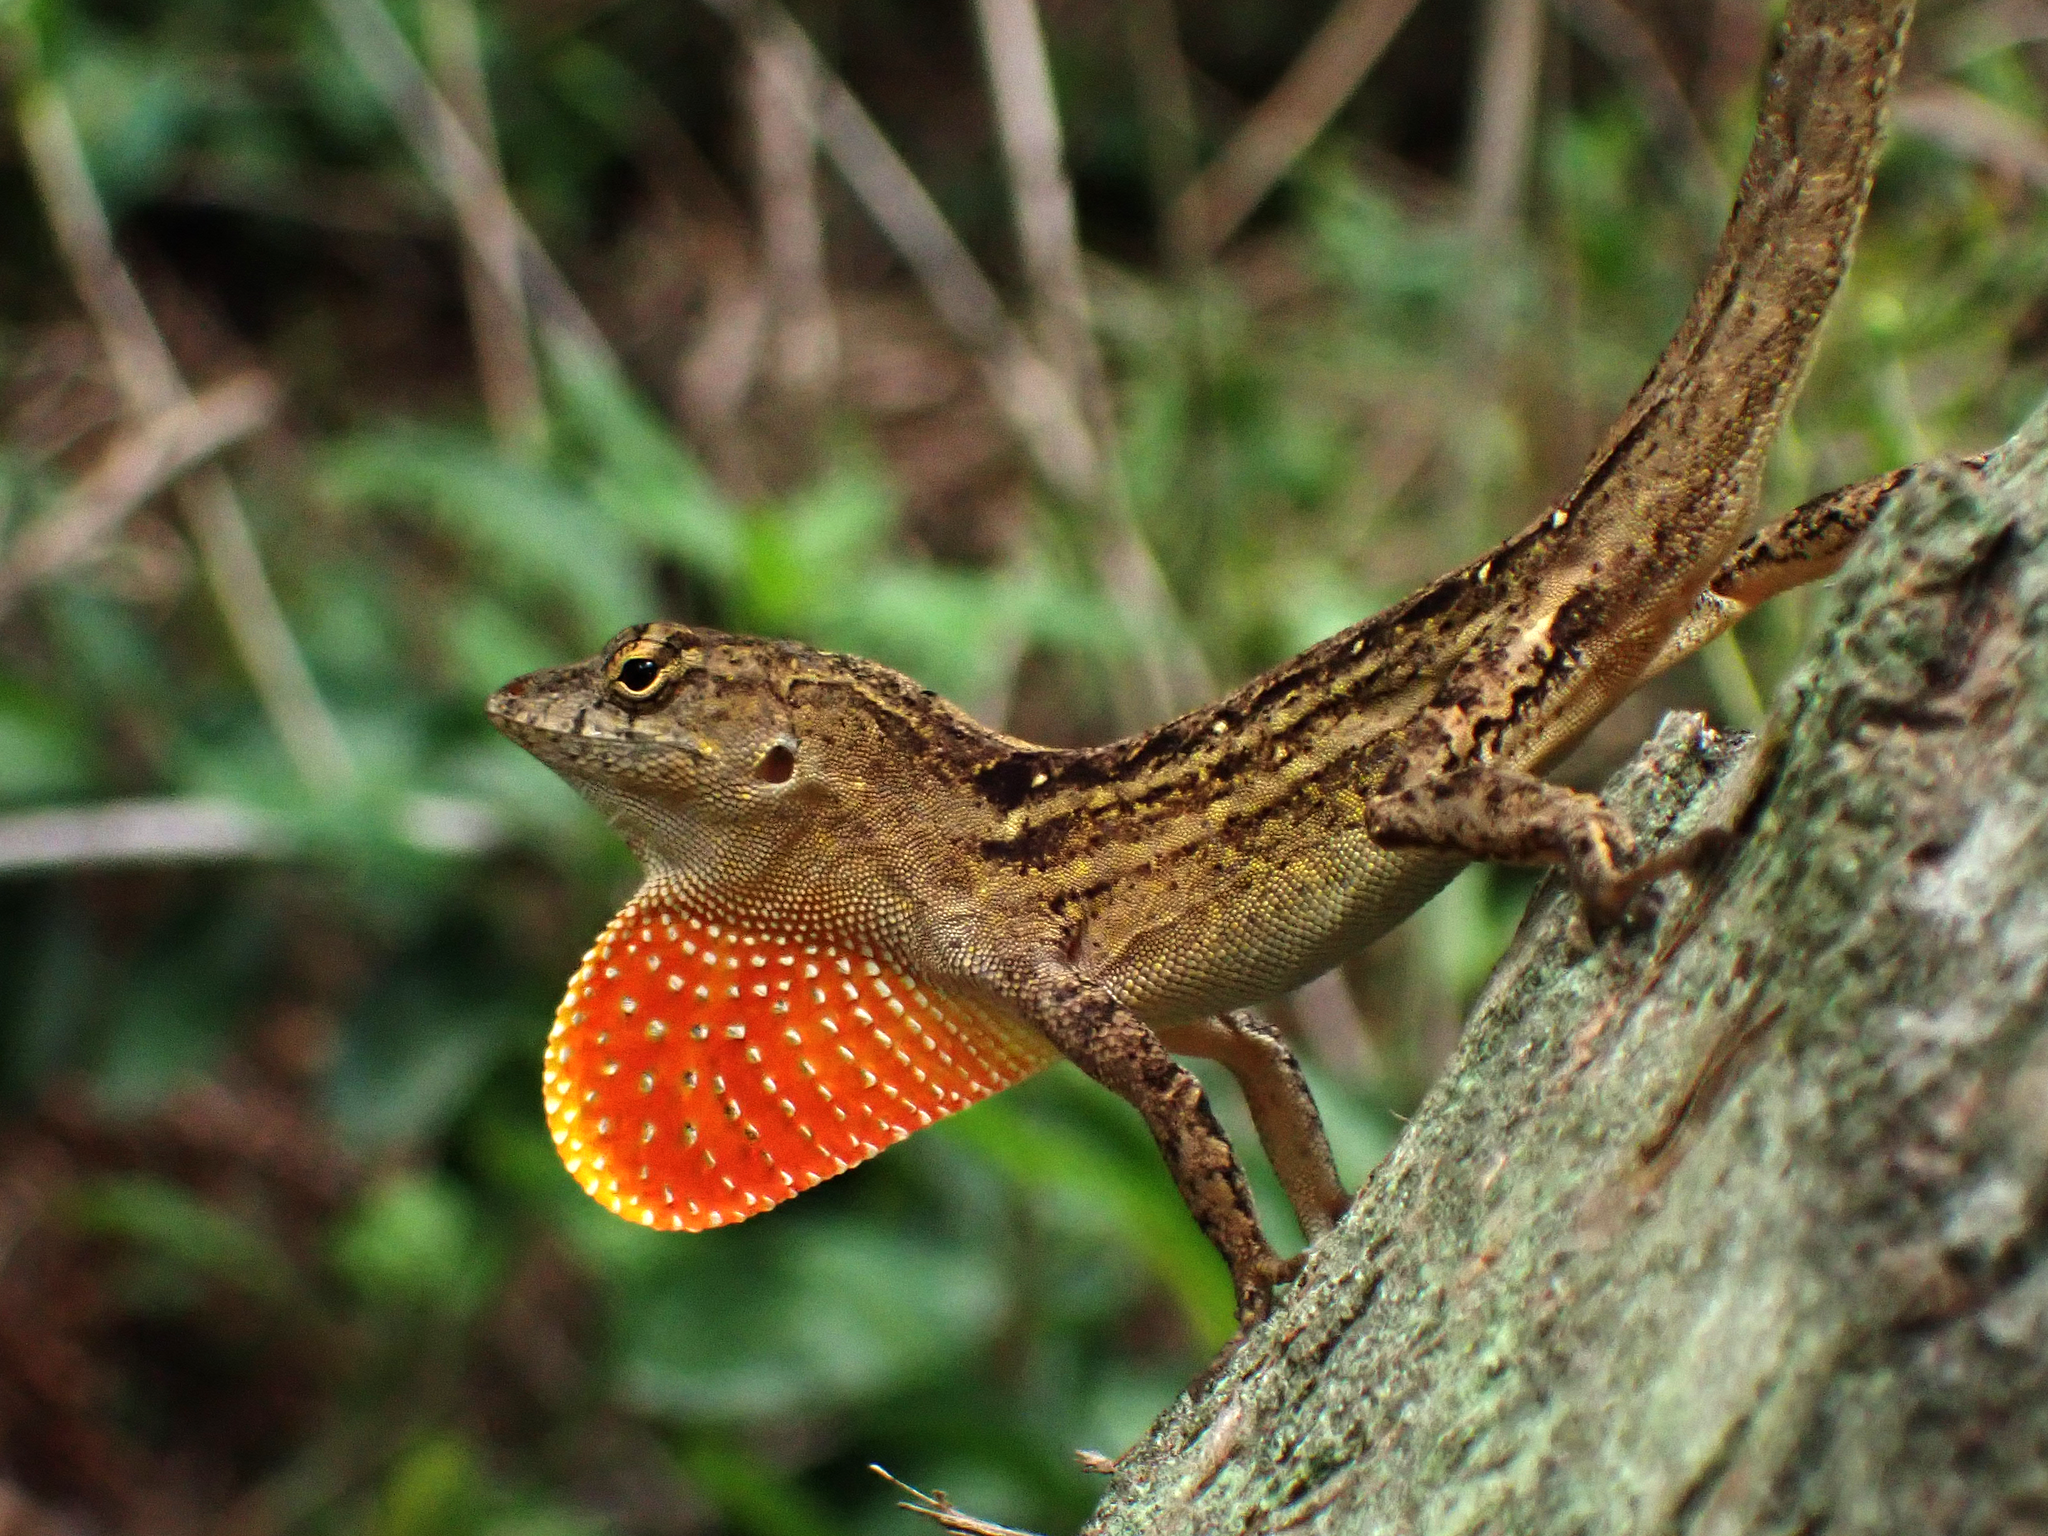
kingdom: Animalia
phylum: Chordata
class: Squamata
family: Dactyloidae
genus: Anolis
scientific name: Anolis sagrei
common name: Brown anole
